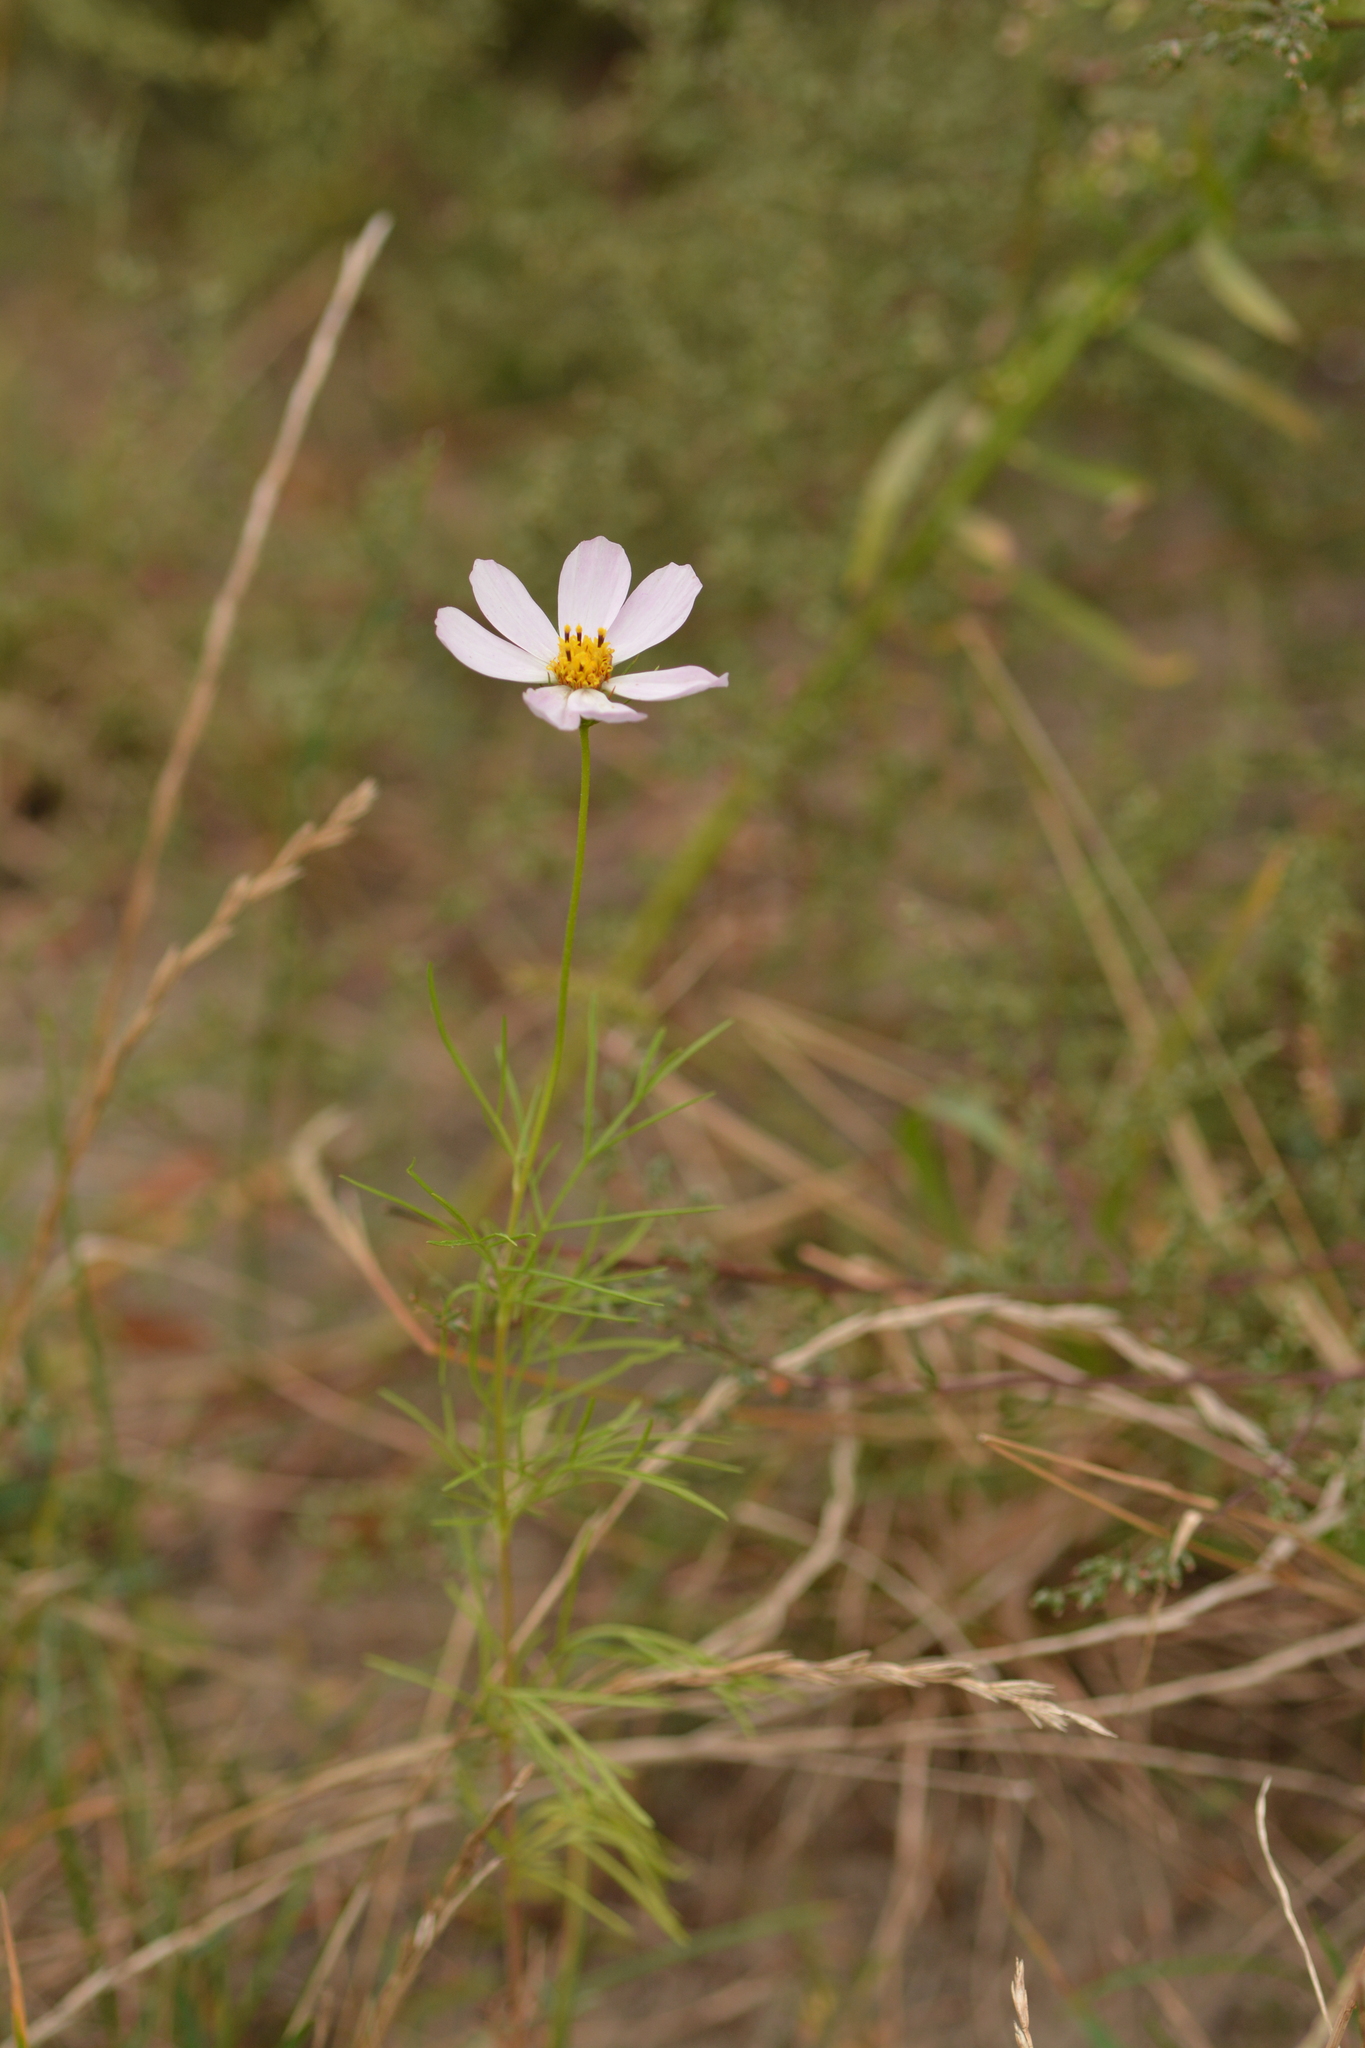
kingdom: Plantae
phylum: Tracheophyta
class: Magnoliopsida
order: Asterales
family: Asteraceae
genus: Cosmos
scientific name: Cosmos bipinnatus
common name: Garden cosmos
